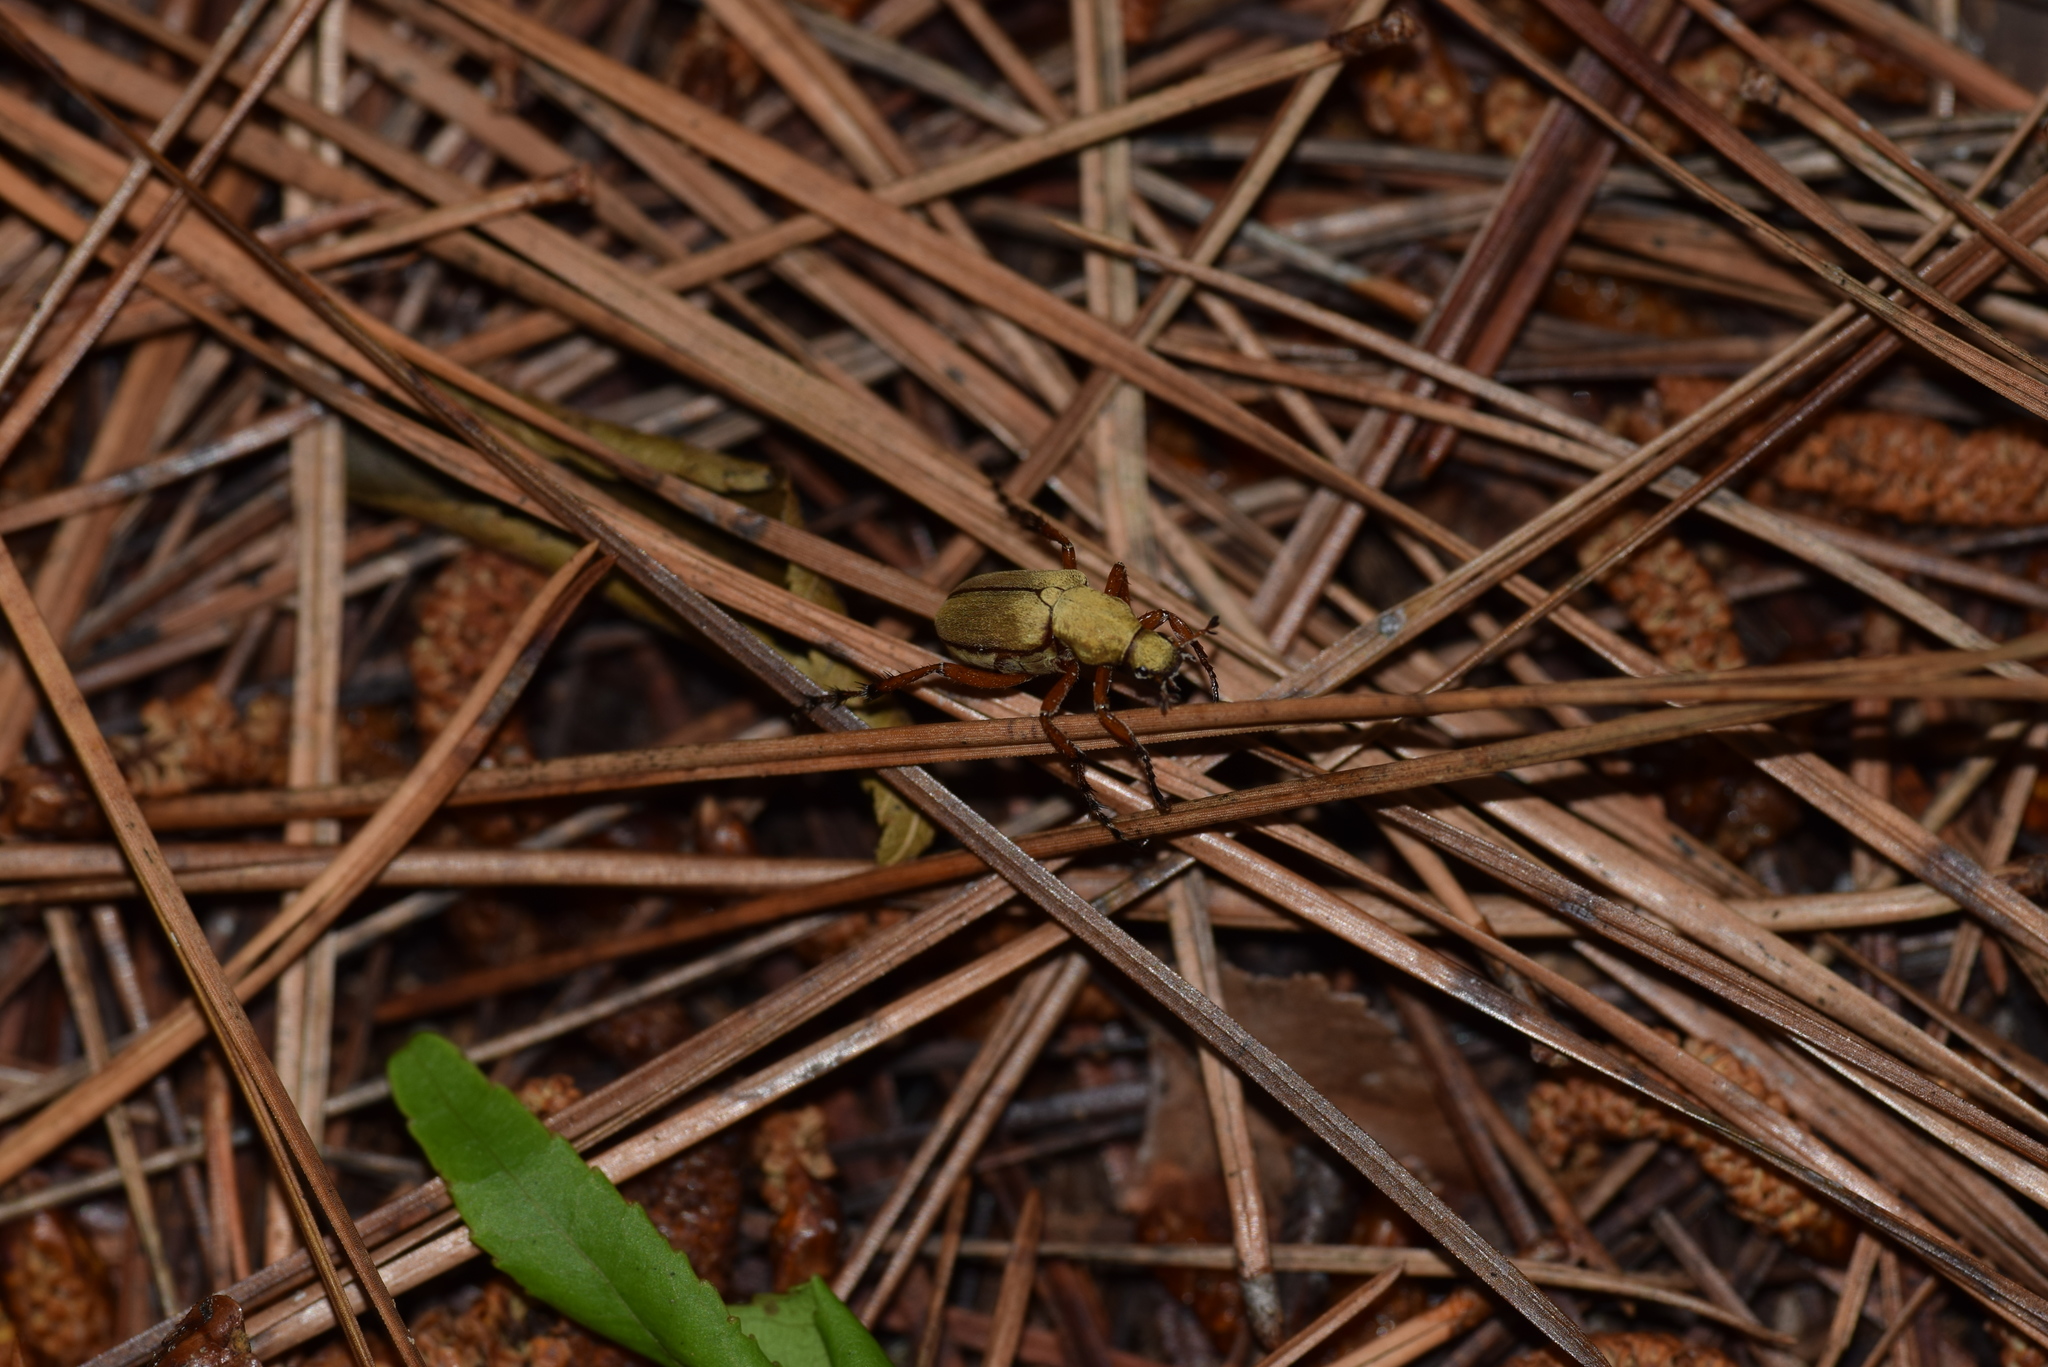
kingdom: Animalia
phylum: Arthropoda
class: Insecta
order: Coleoptera
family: Scarabaeidae
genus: Macrodactylus
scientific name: Macrodactylus subspinosus
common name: American rose chafer
